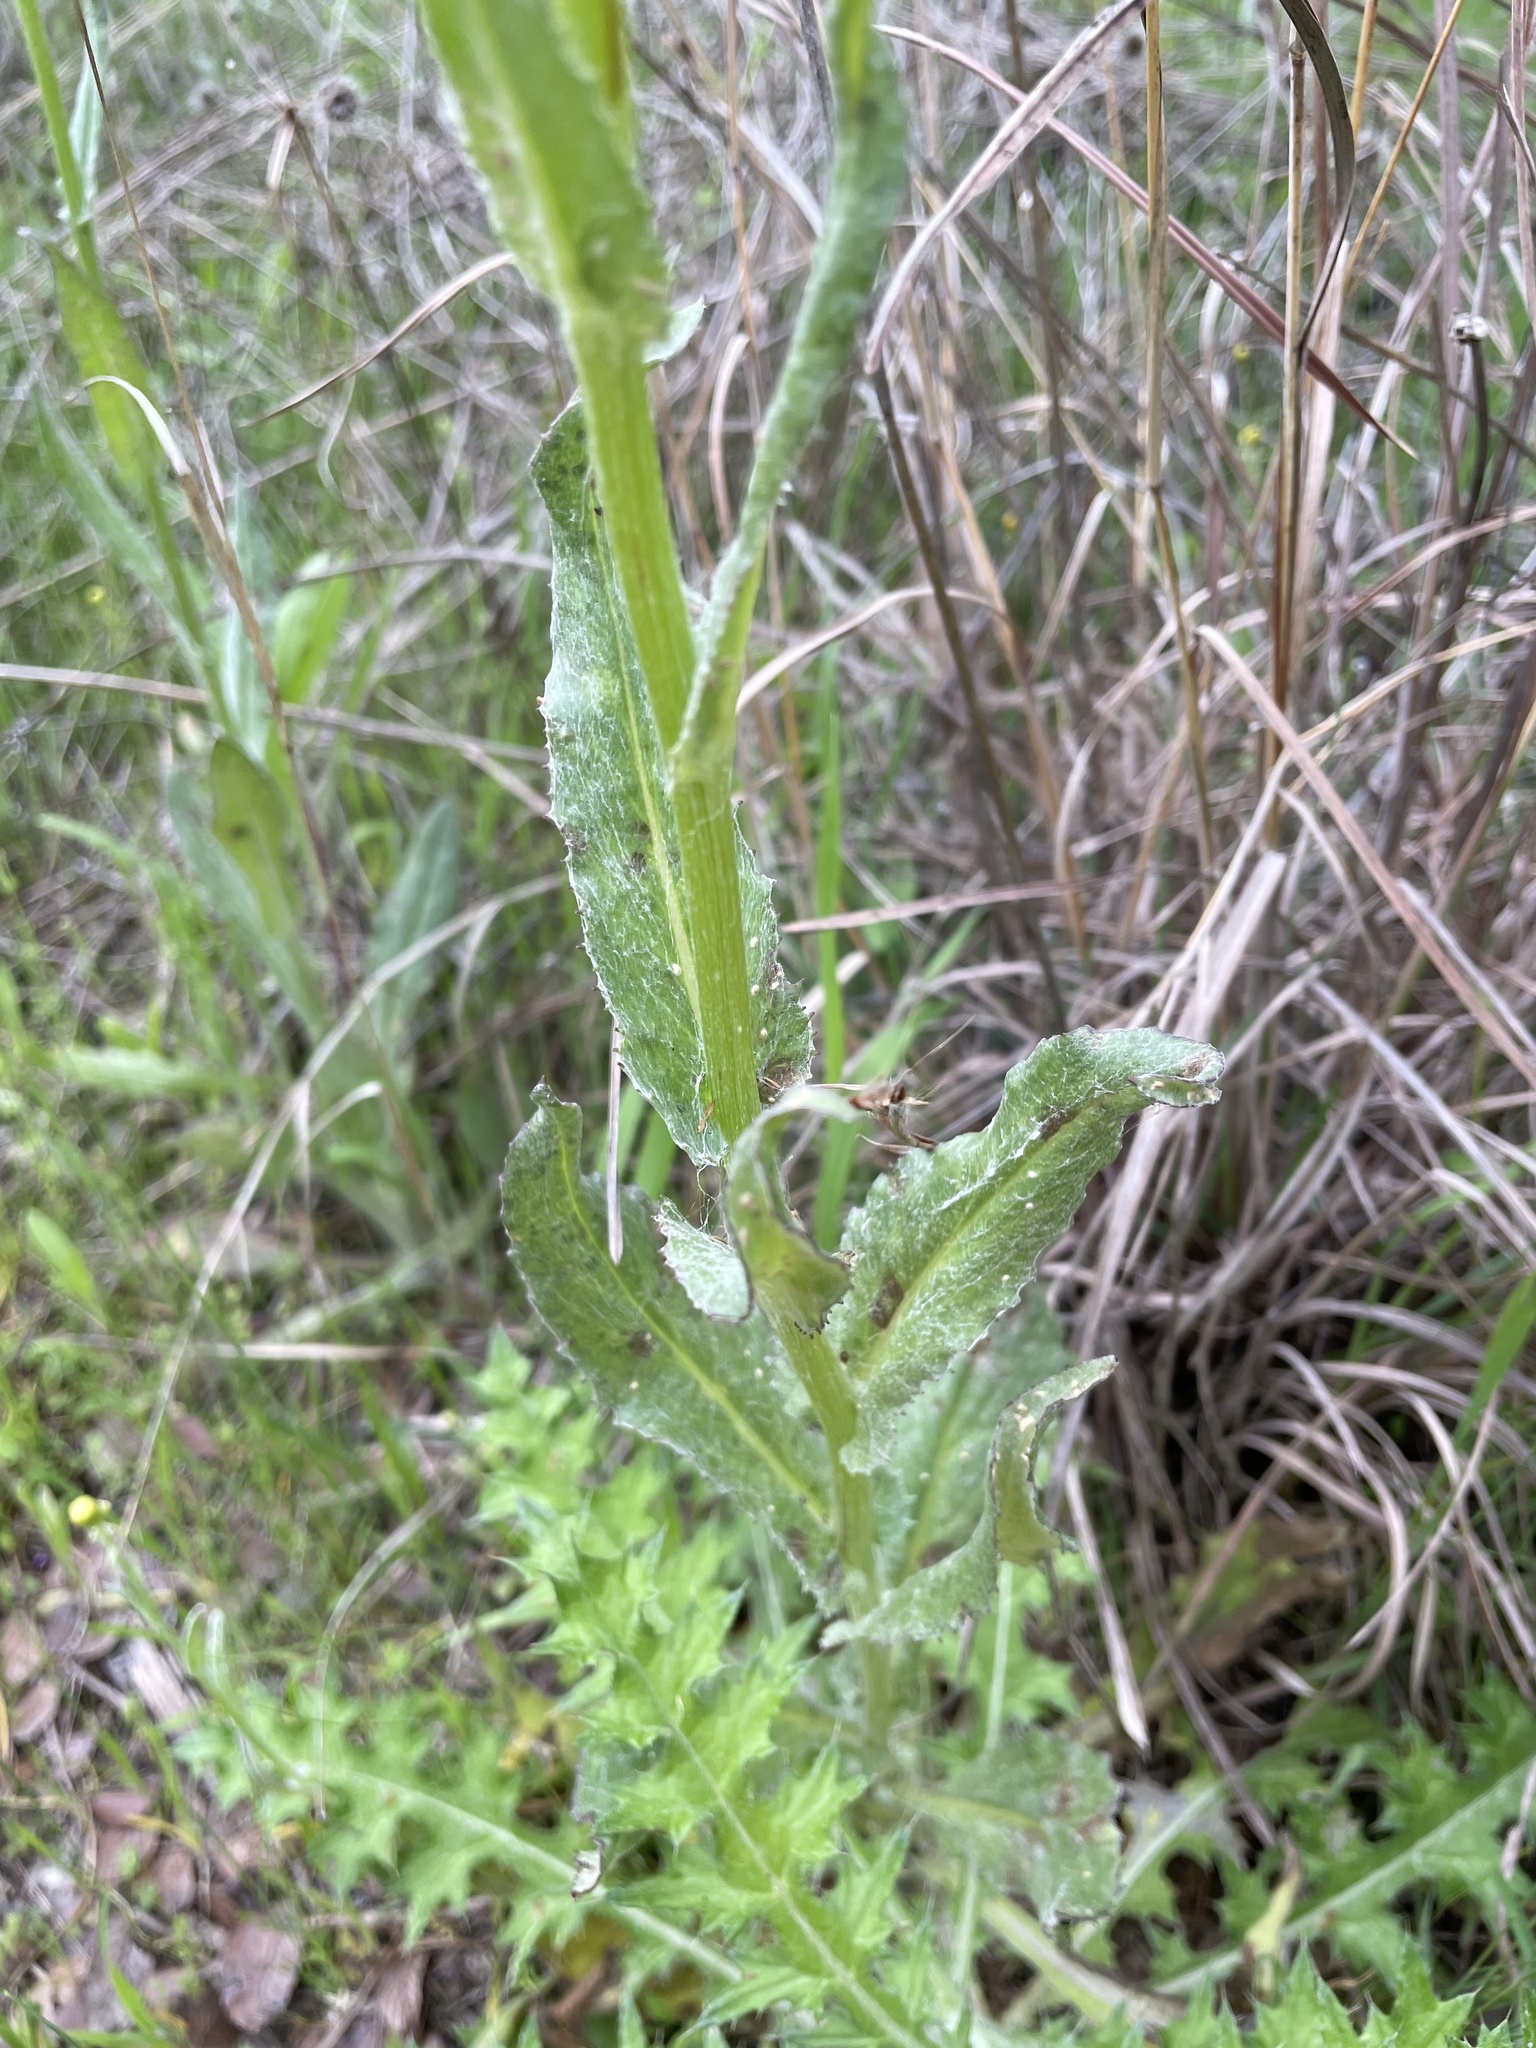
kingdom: Plantae
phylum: Tracheophyta
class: Magnoliopsida
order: Asterales
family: Asteraceae
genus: Senecio
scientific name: Senecio ampullaceus
